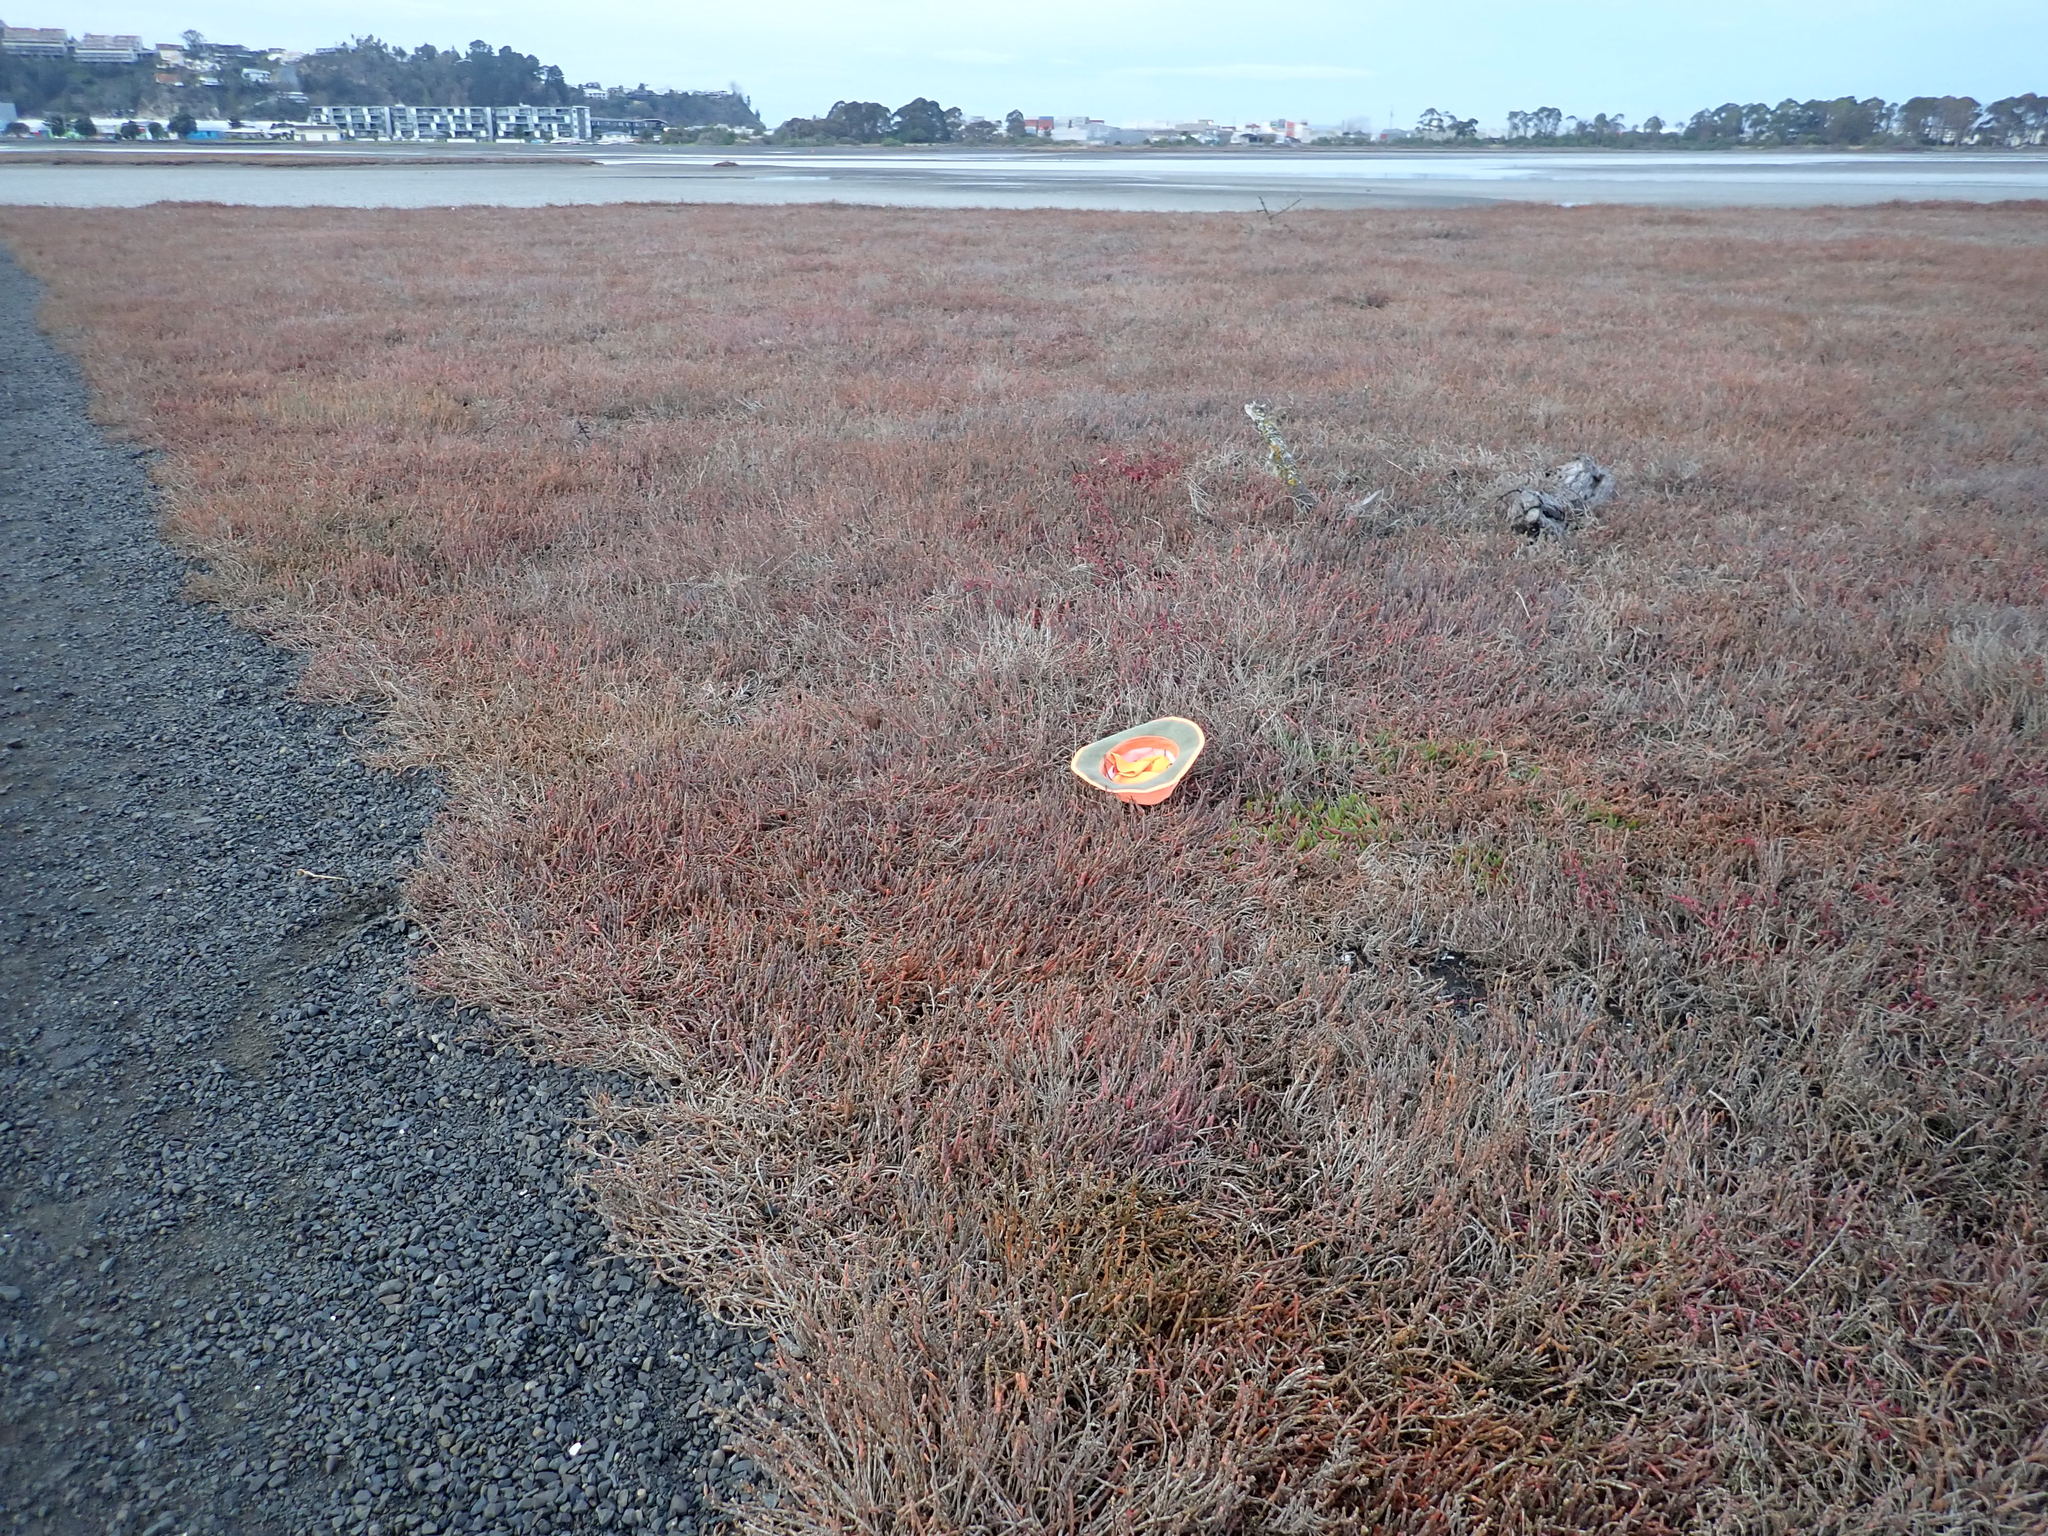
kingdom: Plantae
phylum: Tracheophyta
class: Magnoliopsida
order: Caryophyllales
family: Aizoaceae
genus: Disphyma
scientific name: Disphyma australe
